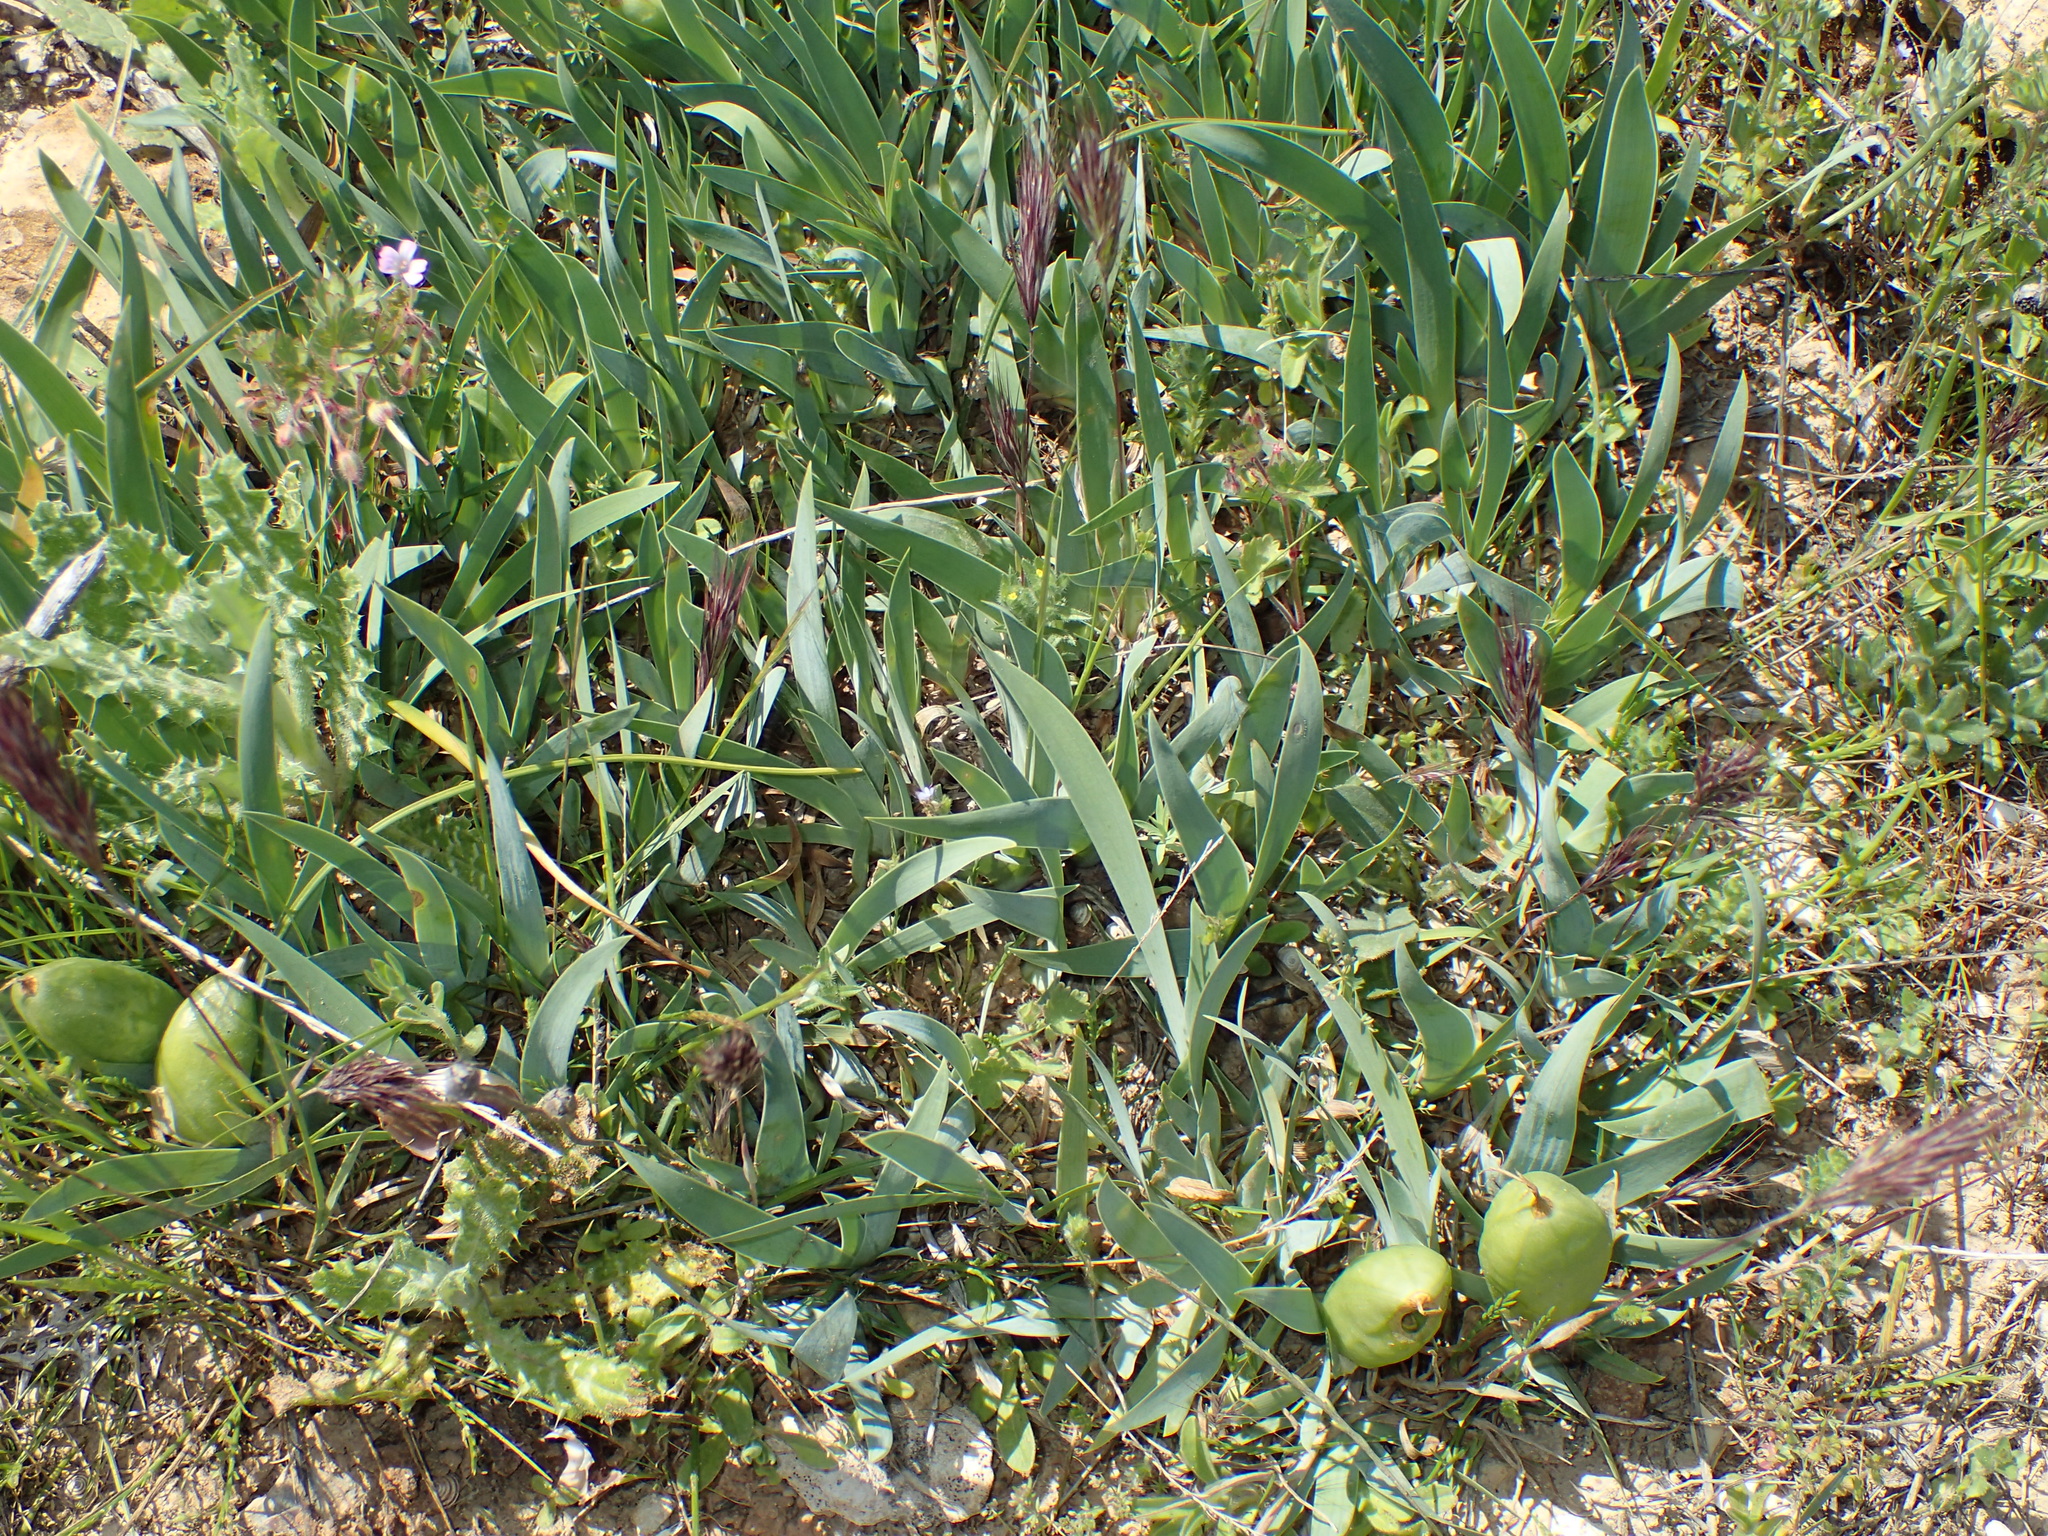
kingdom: Plantae
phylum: Tracheophyta
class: Liliopsida
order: Asparagales
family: Iridaceae
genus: Iris
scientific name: Iris lutescens
